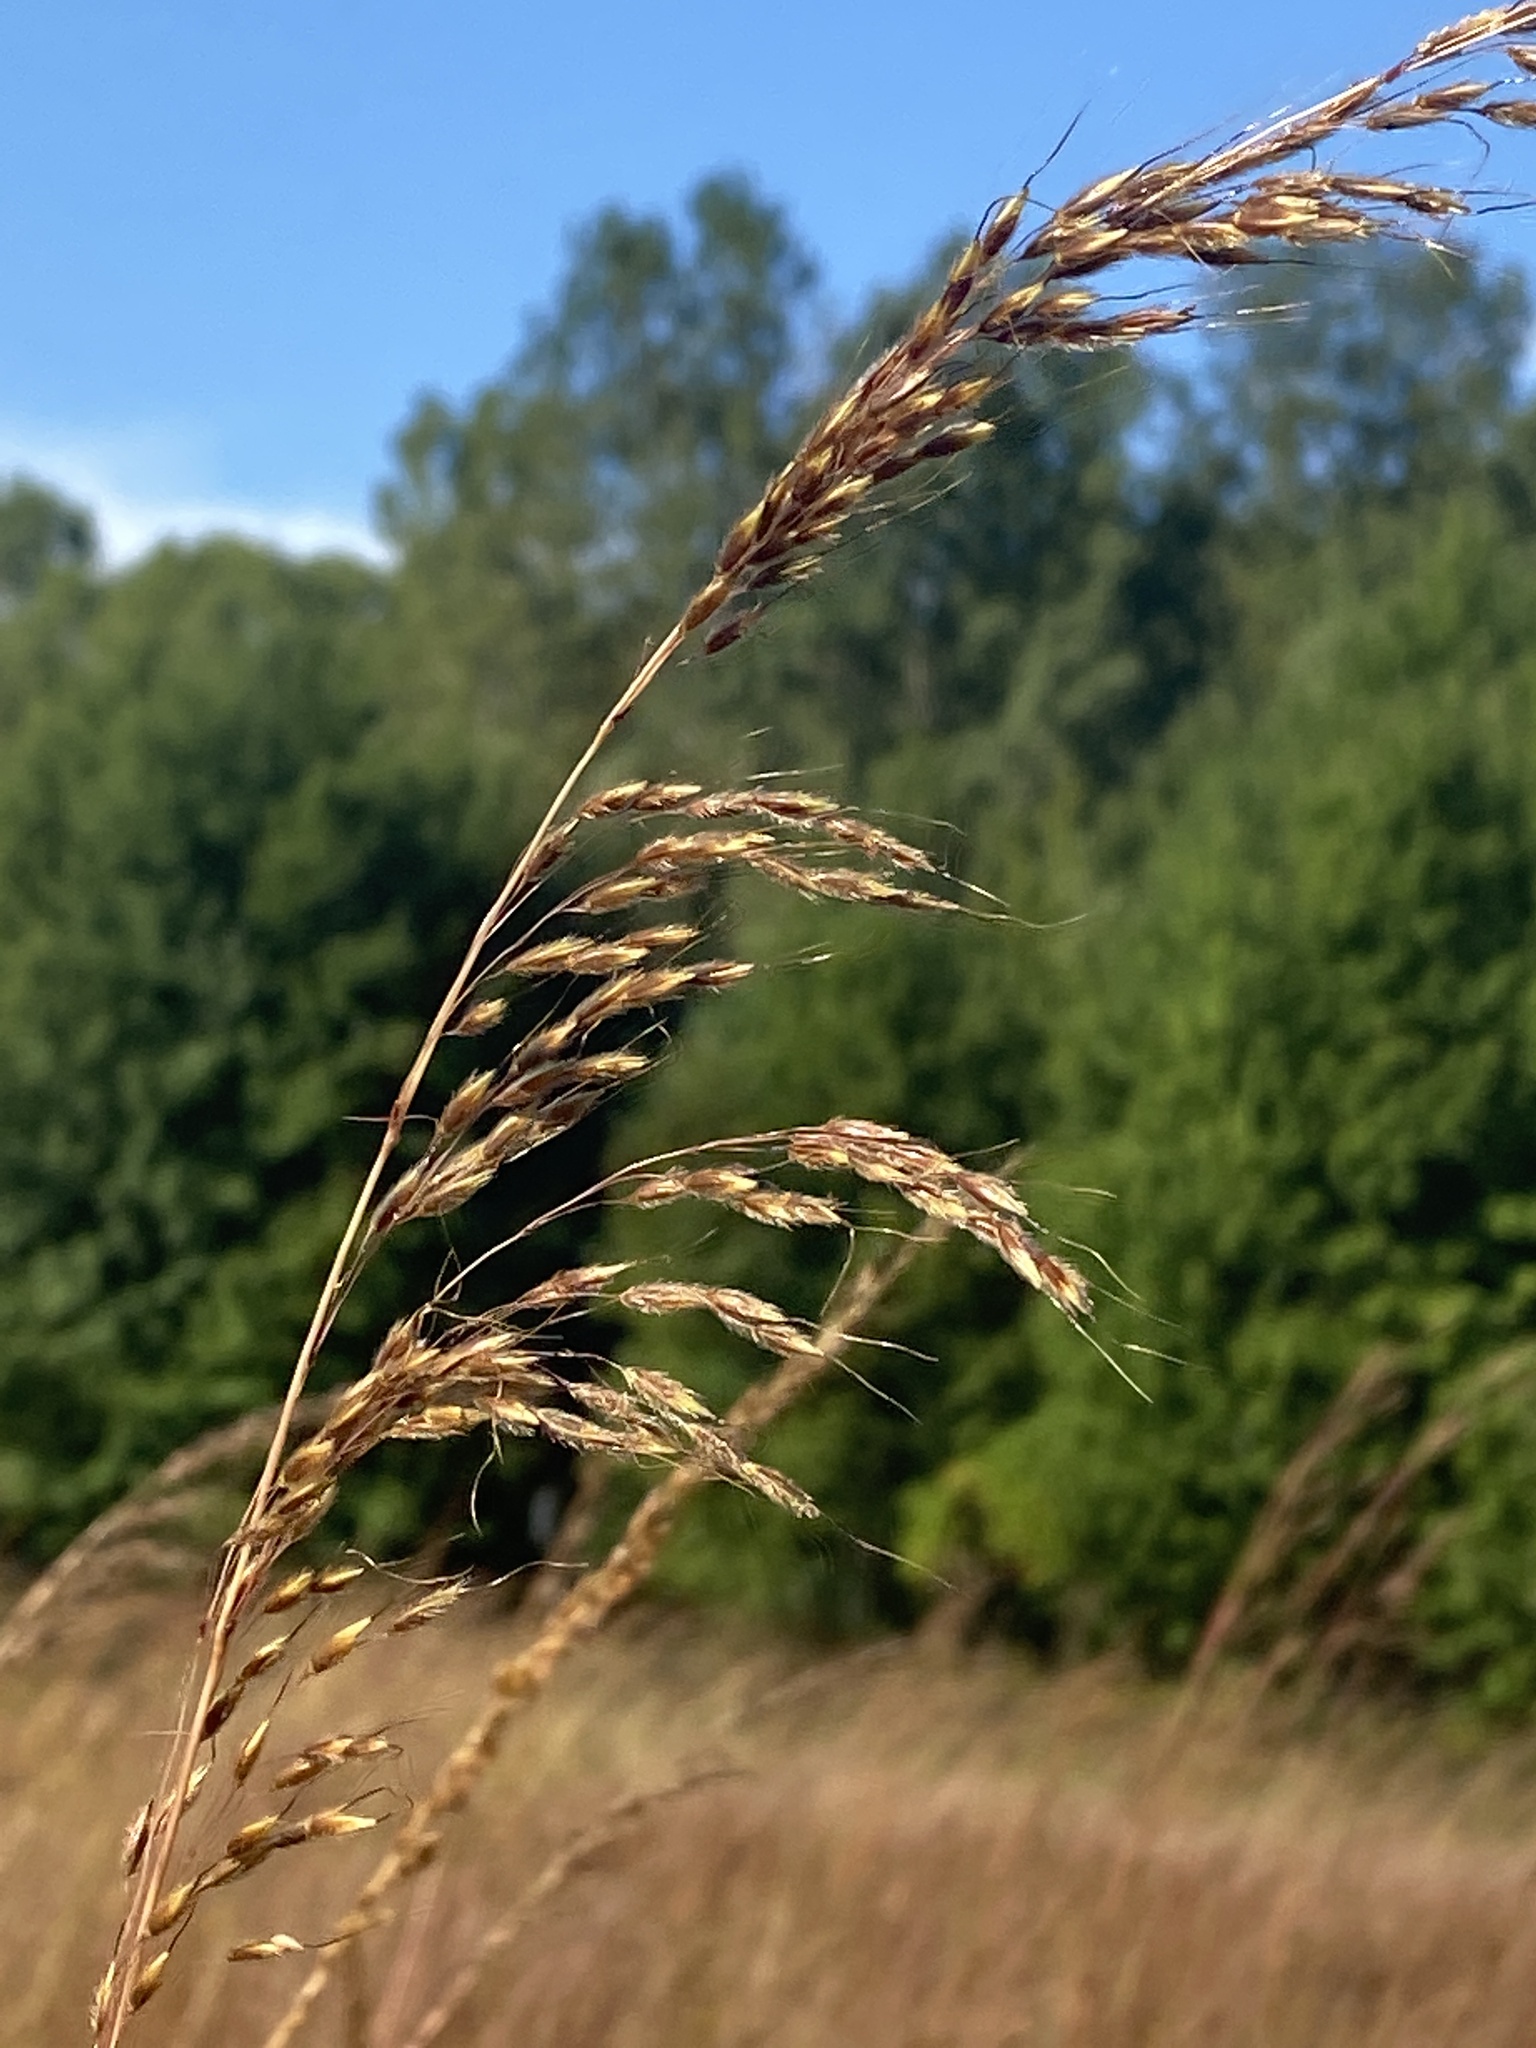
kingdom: Plantae
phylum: Tracheophyta
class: Liliopsida
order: Poales
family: Poaceae
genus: Sorghastrum
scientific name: Sorghastrum nutans
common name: Indian grass
